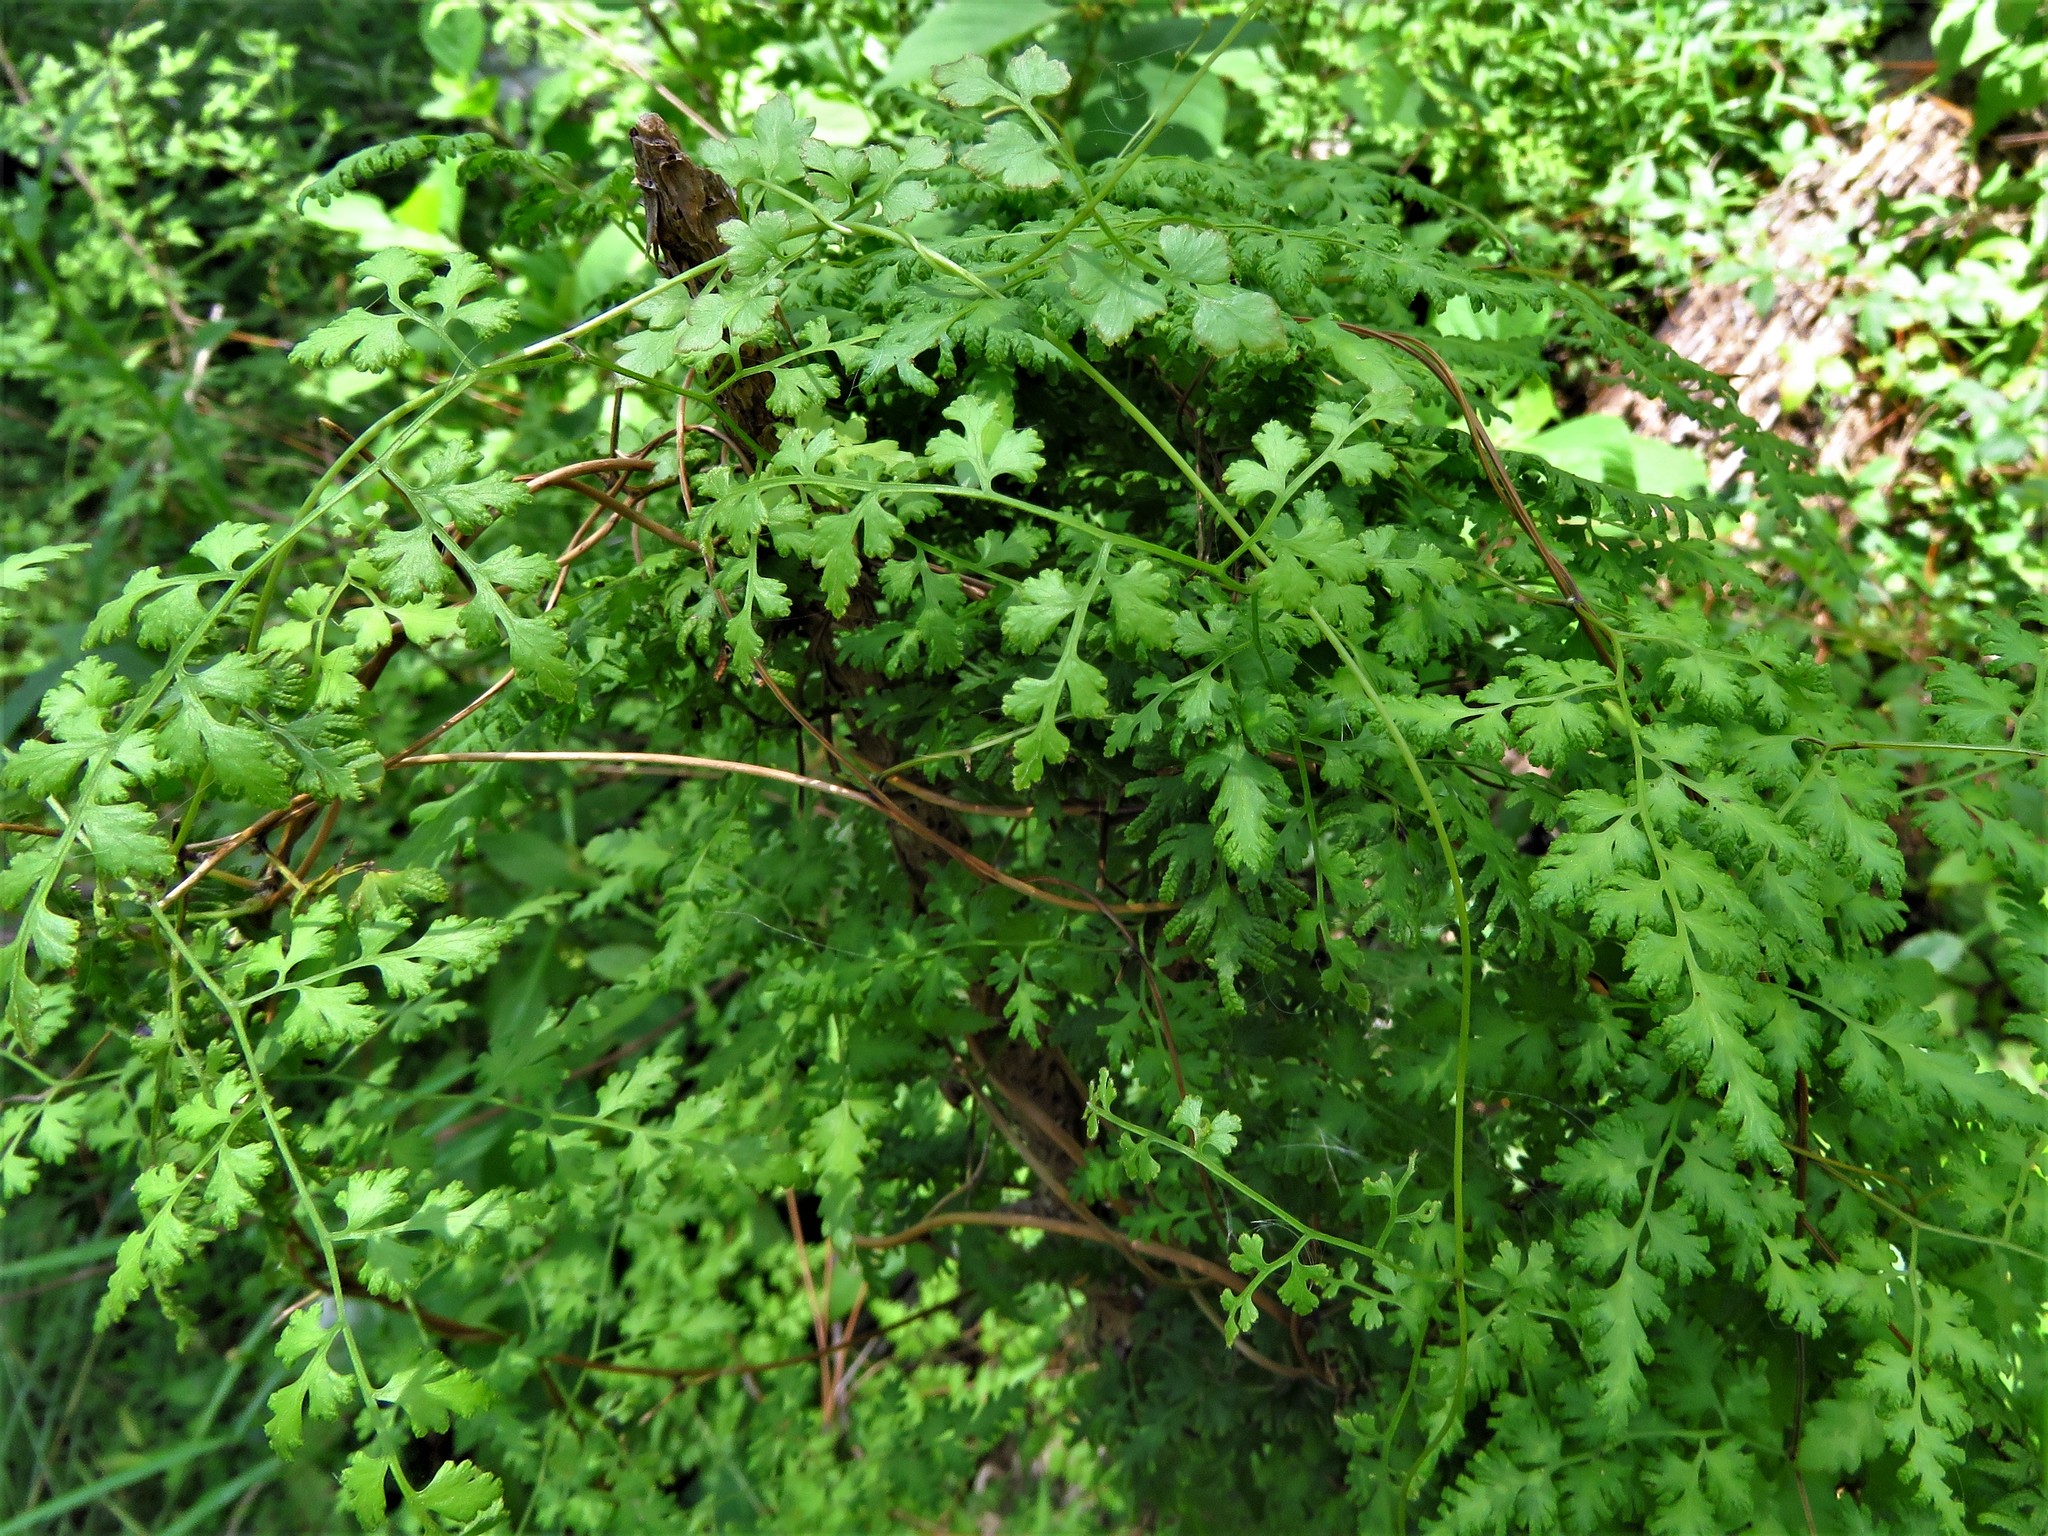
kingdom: Plantae
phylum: Tracheophyta
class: Polypodiopsida
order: Schizaeales
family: Lygodiaceae
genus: Lygodium
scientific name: Lygodium japonicum
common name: Japanese climbing fern
